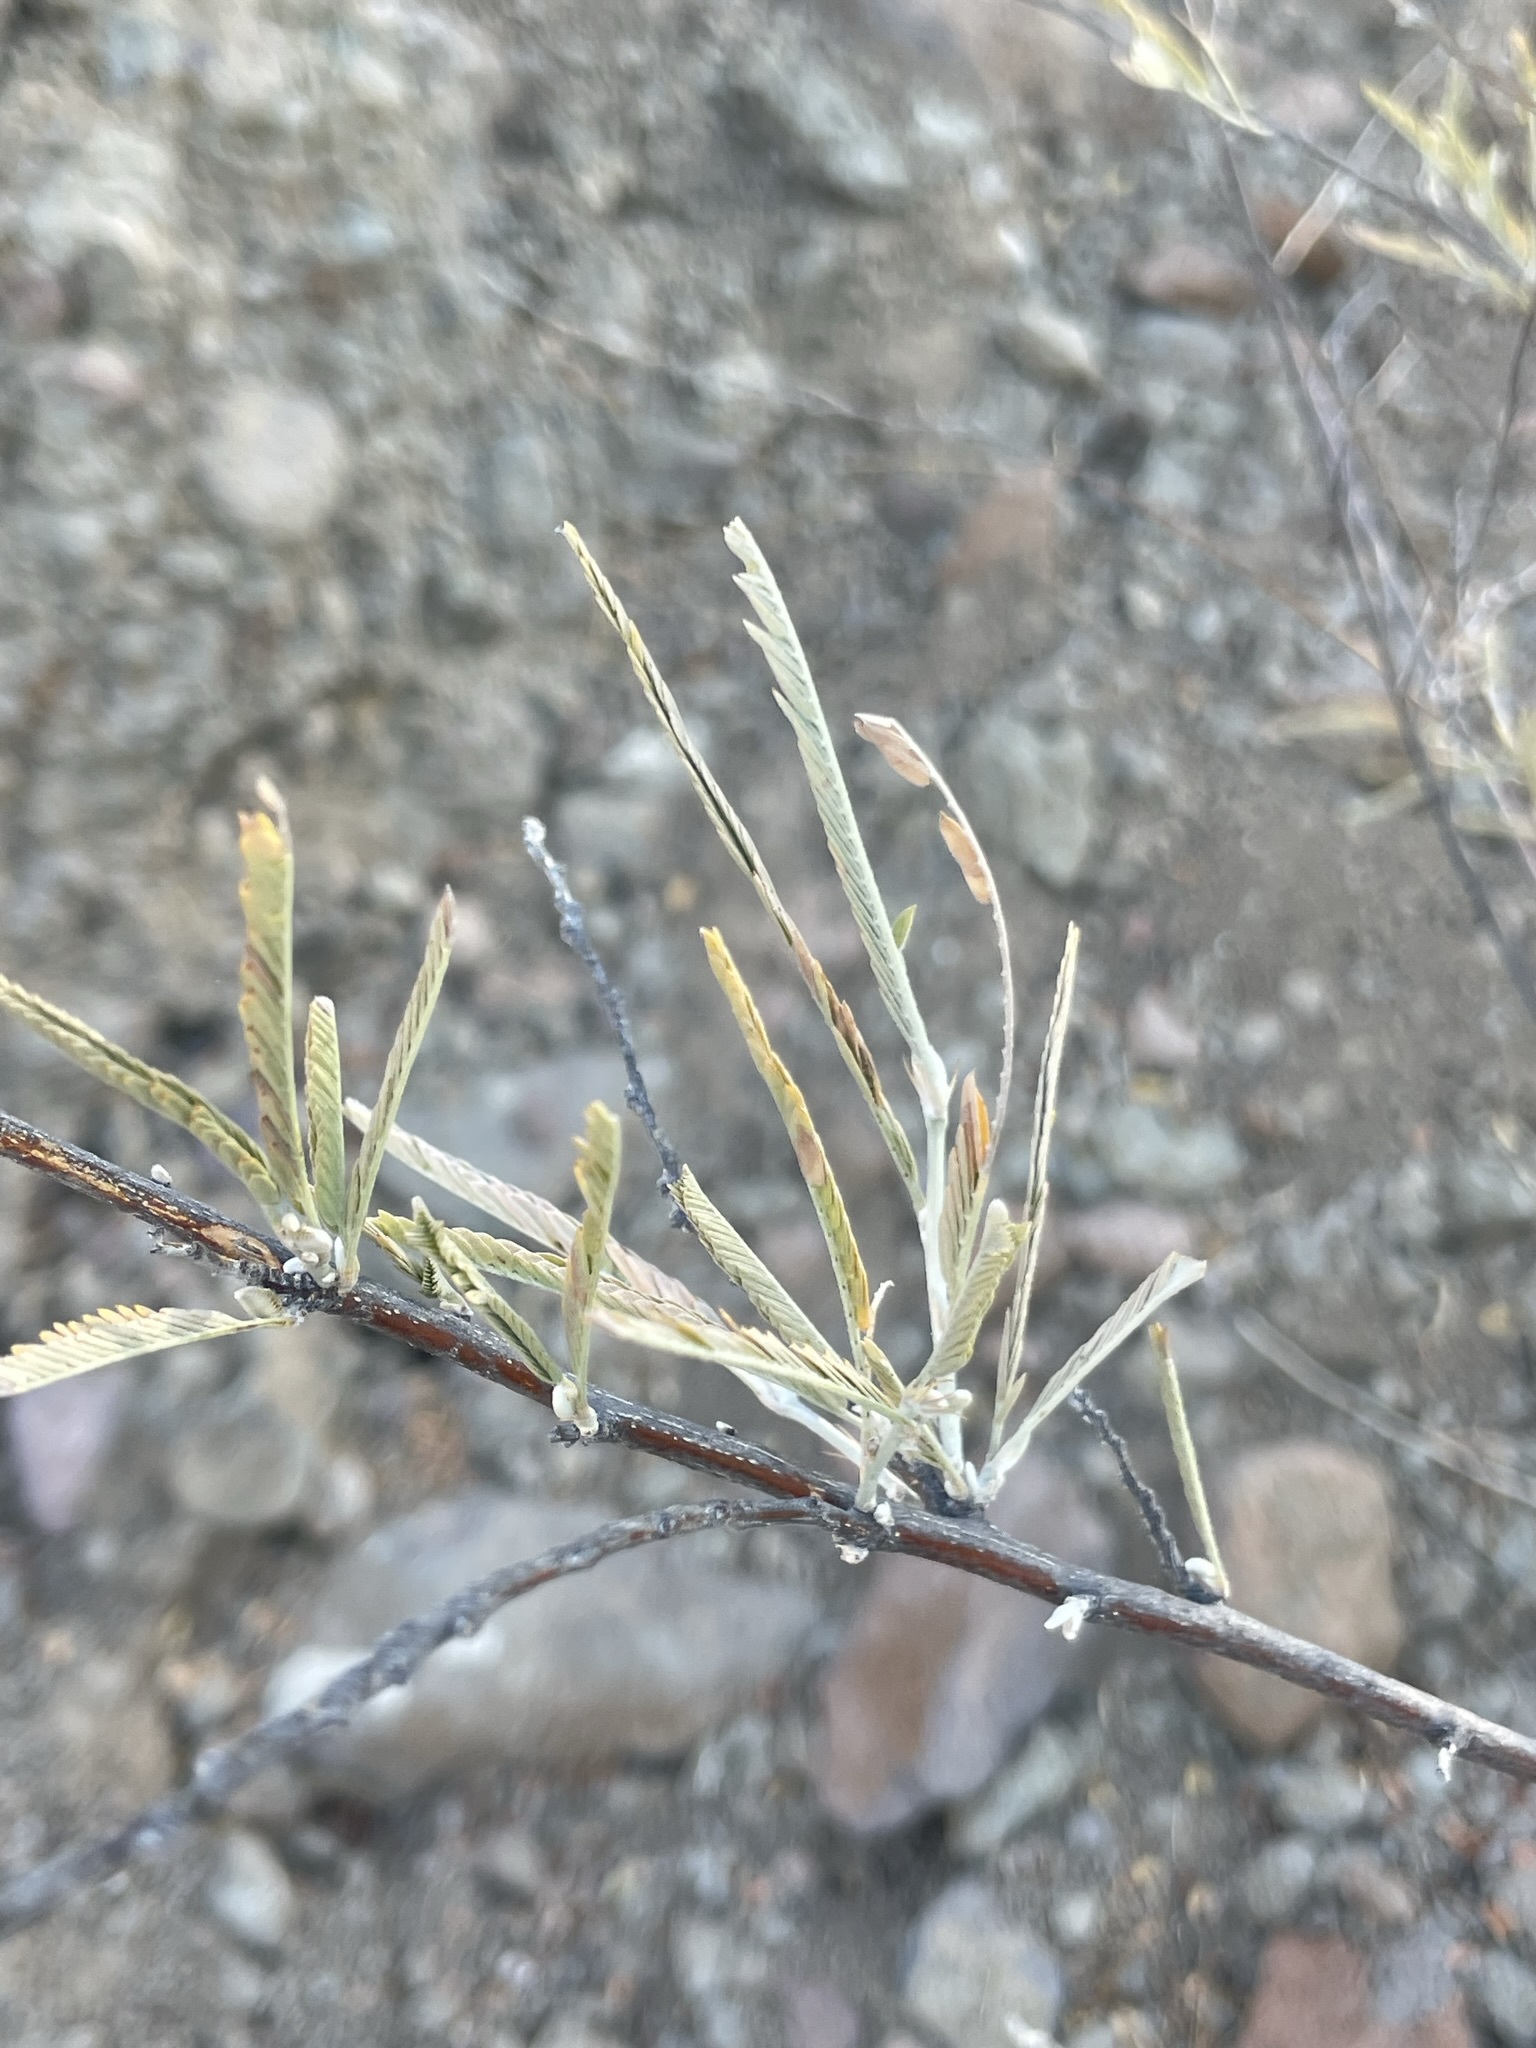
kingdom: Plantae
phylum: Tracheophyta
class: Magnoliopsida
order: Fabales
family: Fabaceae
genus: Ctenodon
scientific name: Ctenodon niveus
